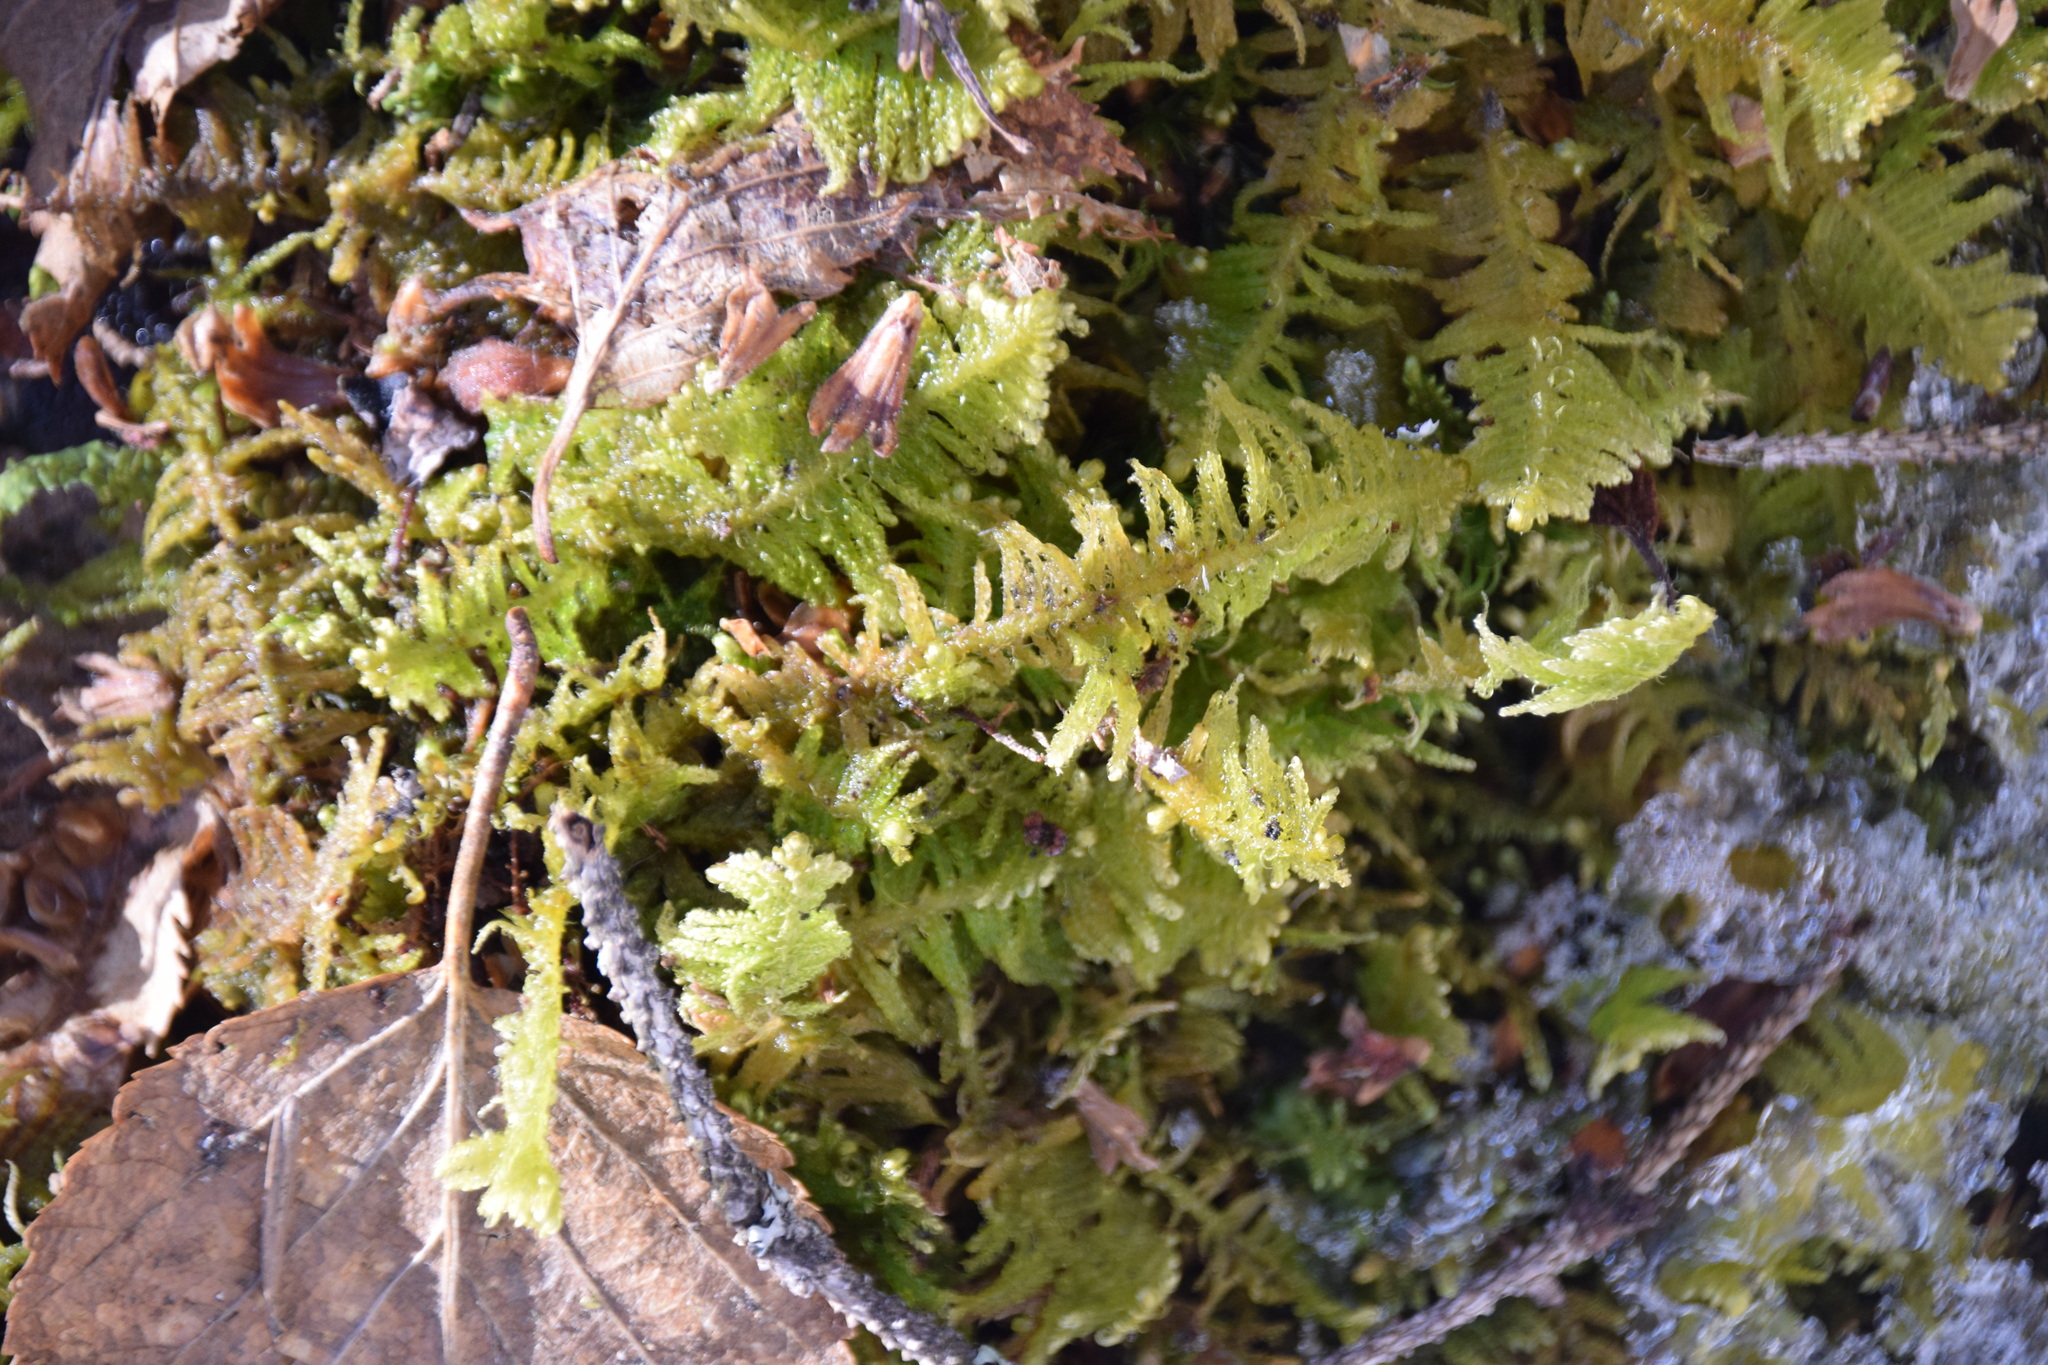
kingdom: Plantae
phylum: Bryophyta
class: Bryopsida
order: Hypnales
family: Pylaisiaceae
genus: Ptilium
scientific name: Ptilium crista-castrensis
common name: Knight's plume moss
